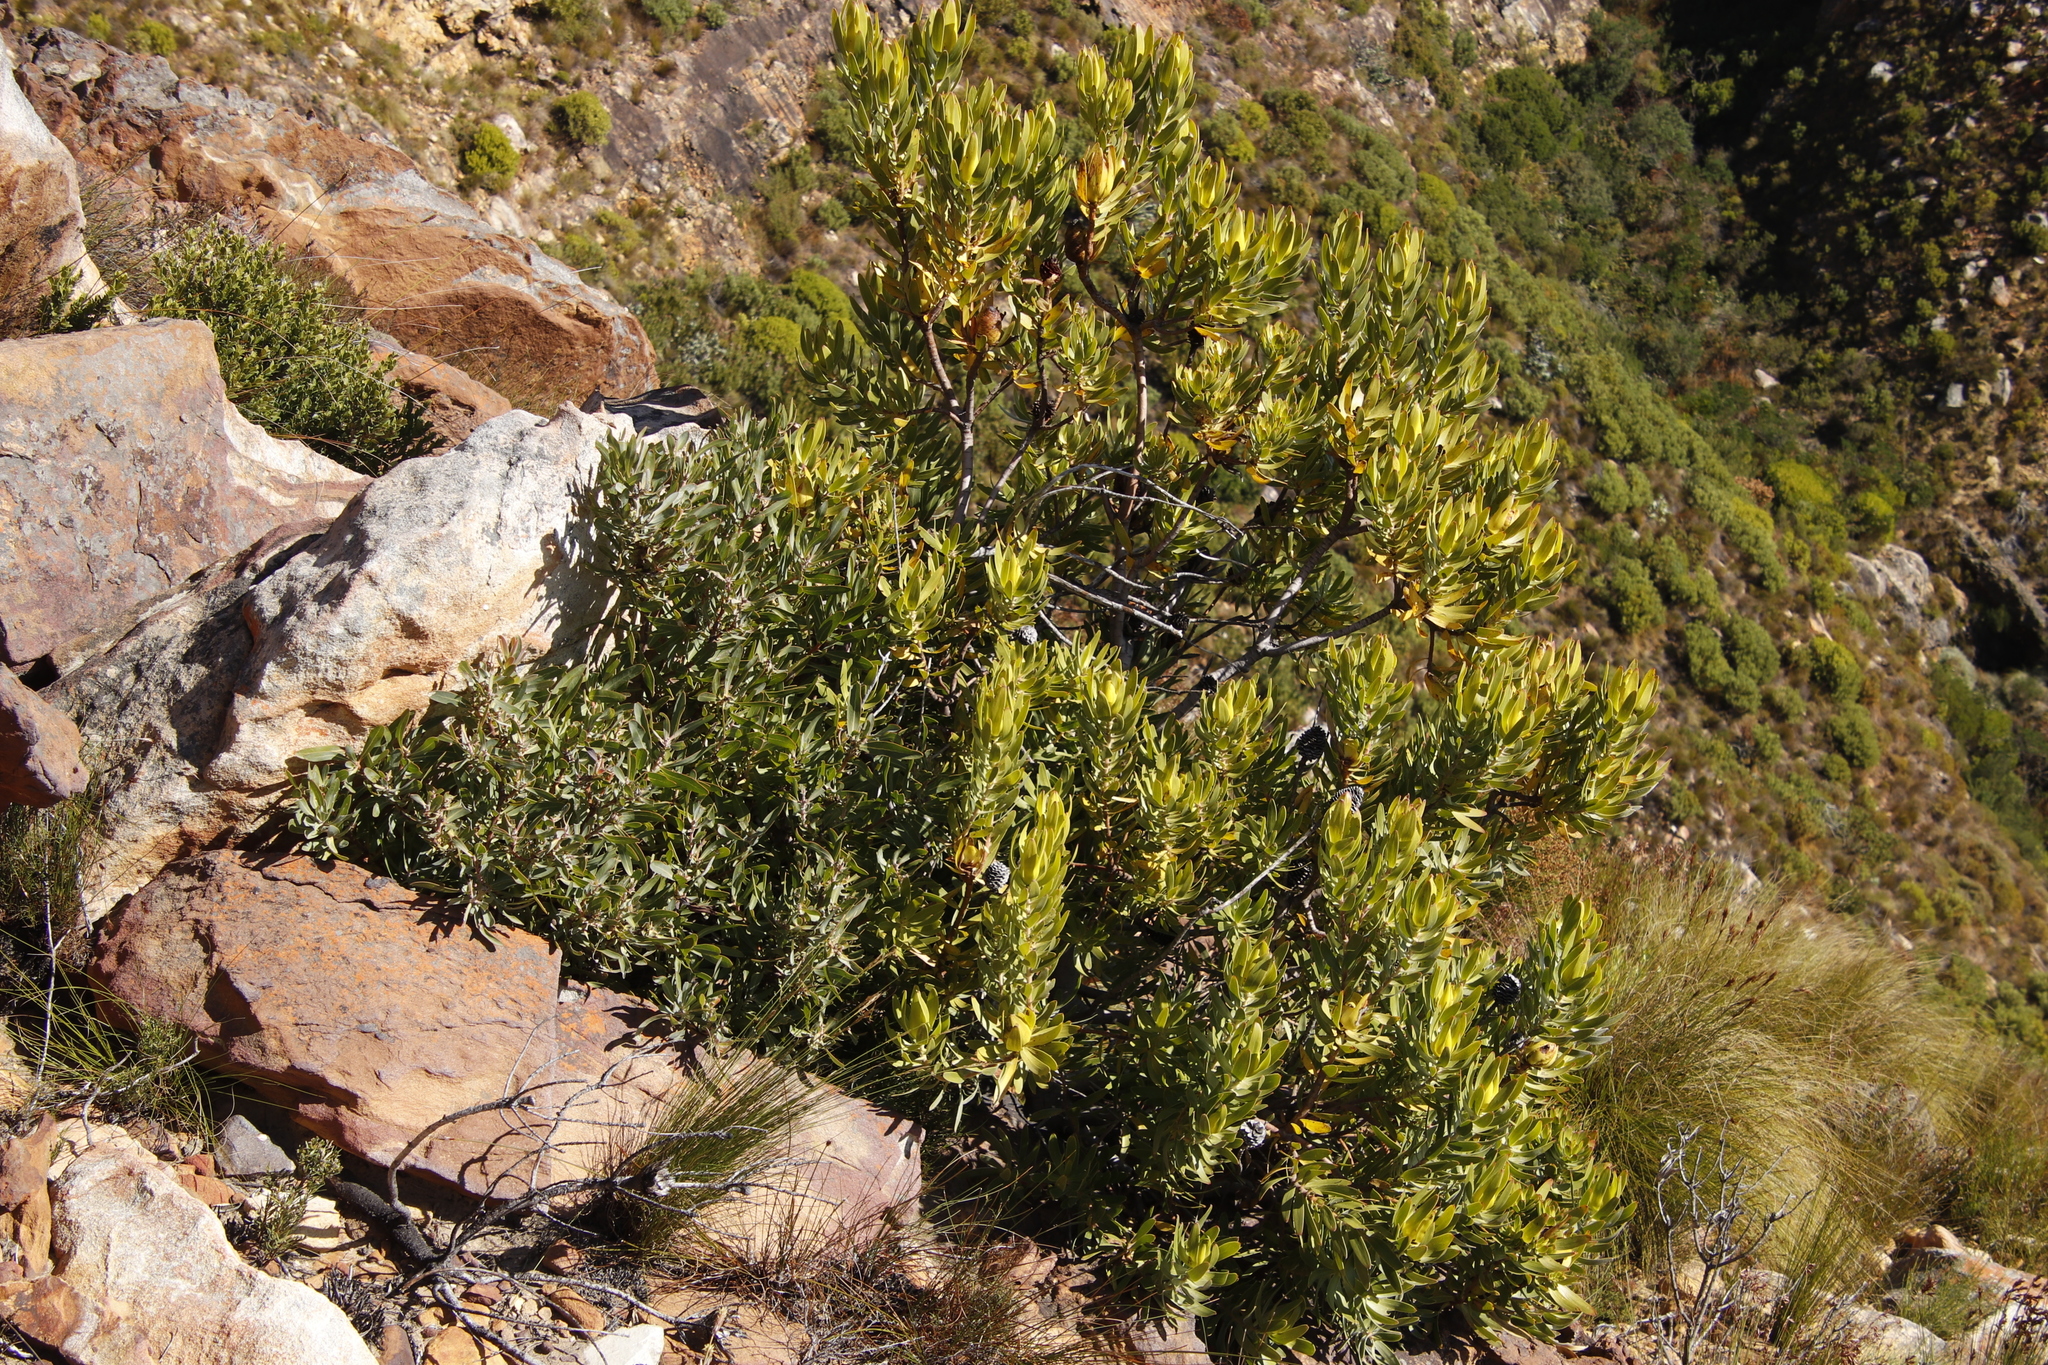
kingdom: Plantae
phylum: Tracheophyta
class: Magnoliopsida
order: Proteales
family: Proteaceae
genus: Leucadendron
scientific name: Leucadendron laureolum
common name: Golden sunshinebush
